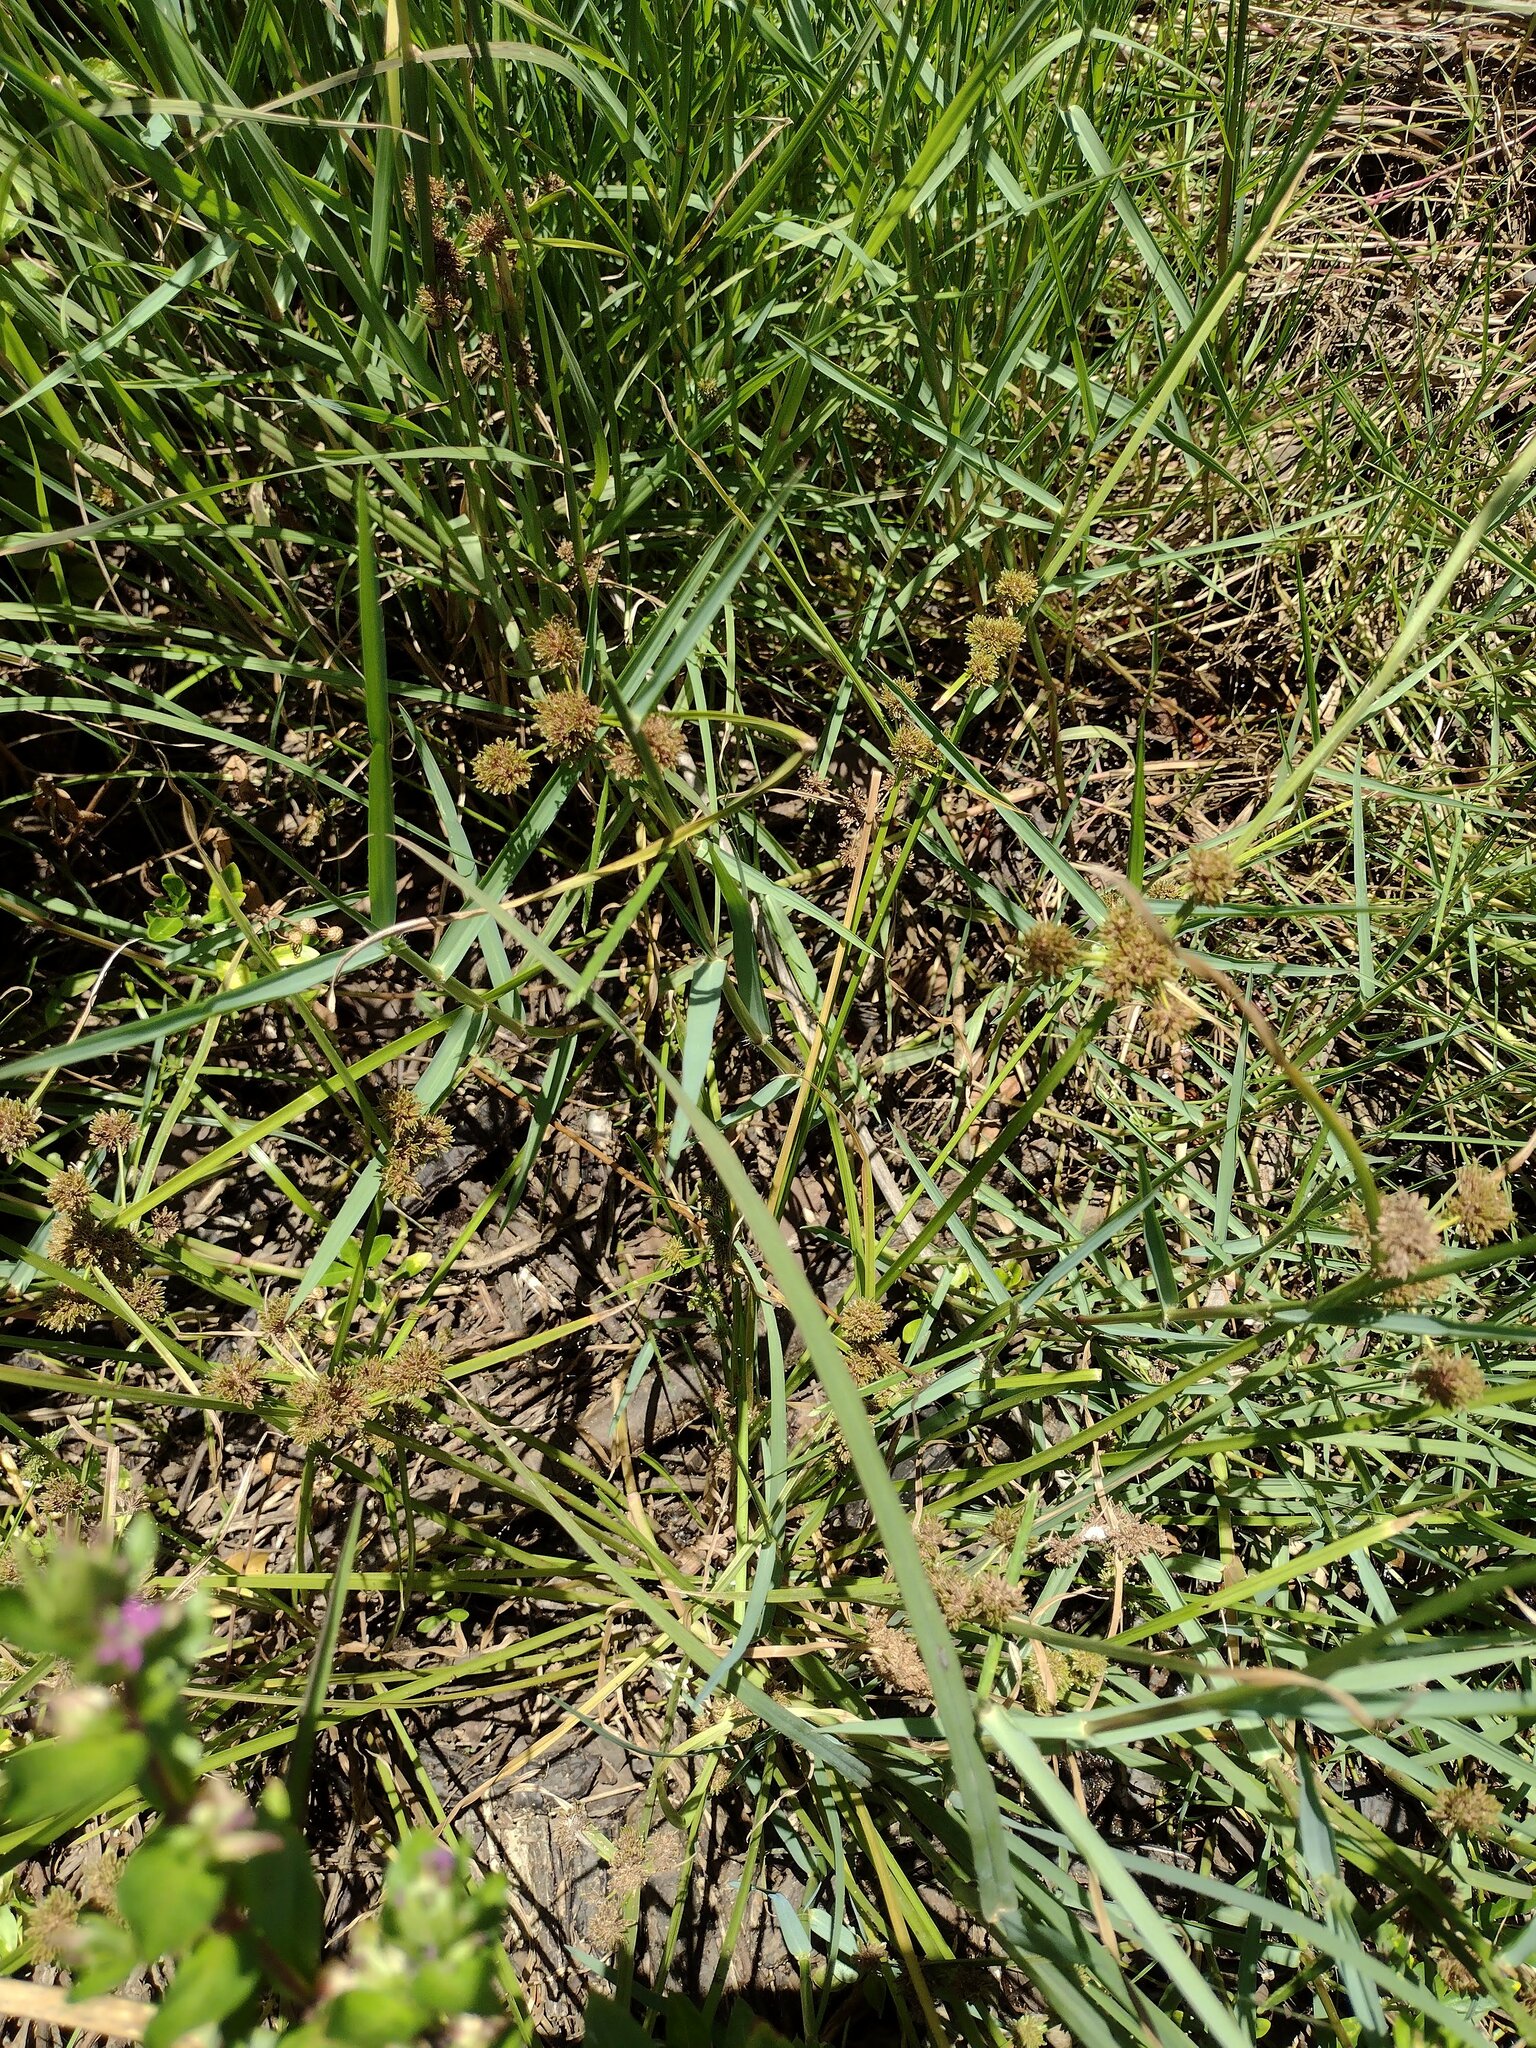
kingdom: Plantae
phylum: Tracheophyta
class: Liliopsida
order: Poales
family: Cyperaceae
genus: Cyperus
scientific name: Cyperus difformis
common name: Variable flatsedge
